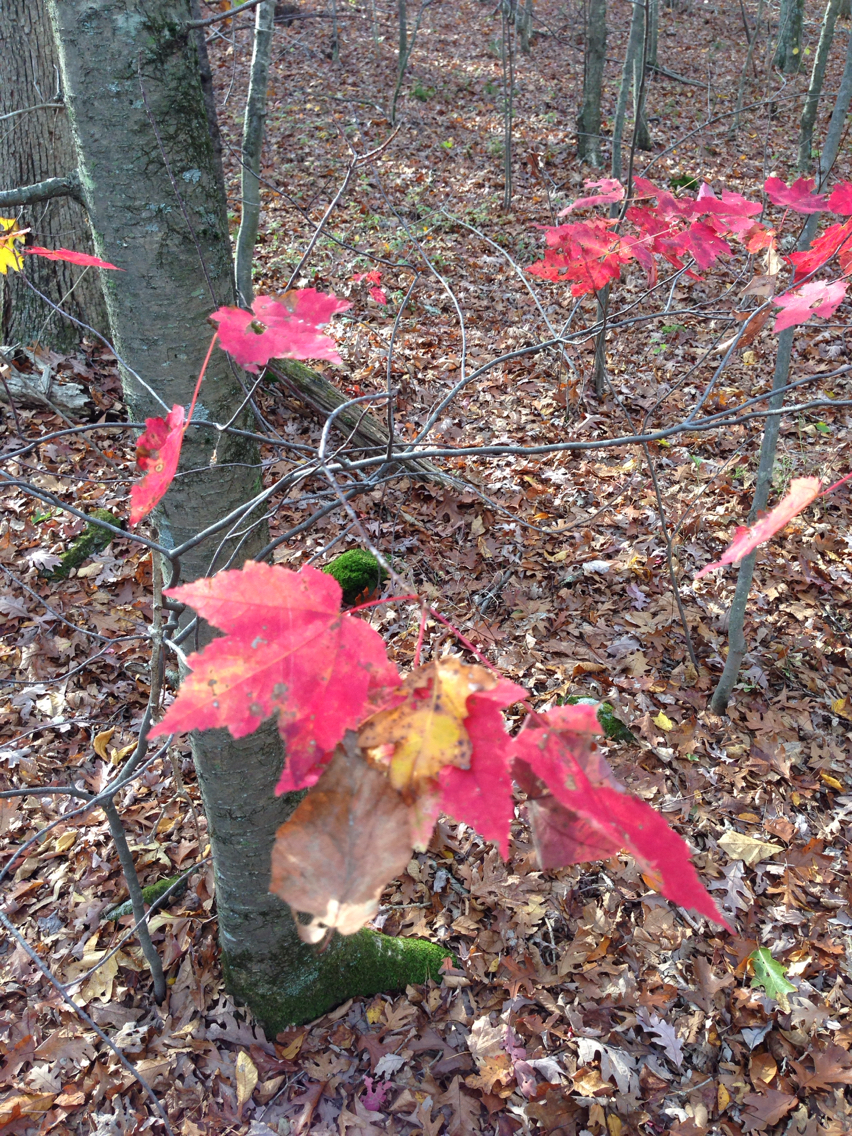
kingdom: Plantae
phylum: Tracheophyta
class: Magnoliopsida
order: Sapindales
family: Sapindaceae
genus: Acer
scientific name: Acer rubrum
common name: Red maple
